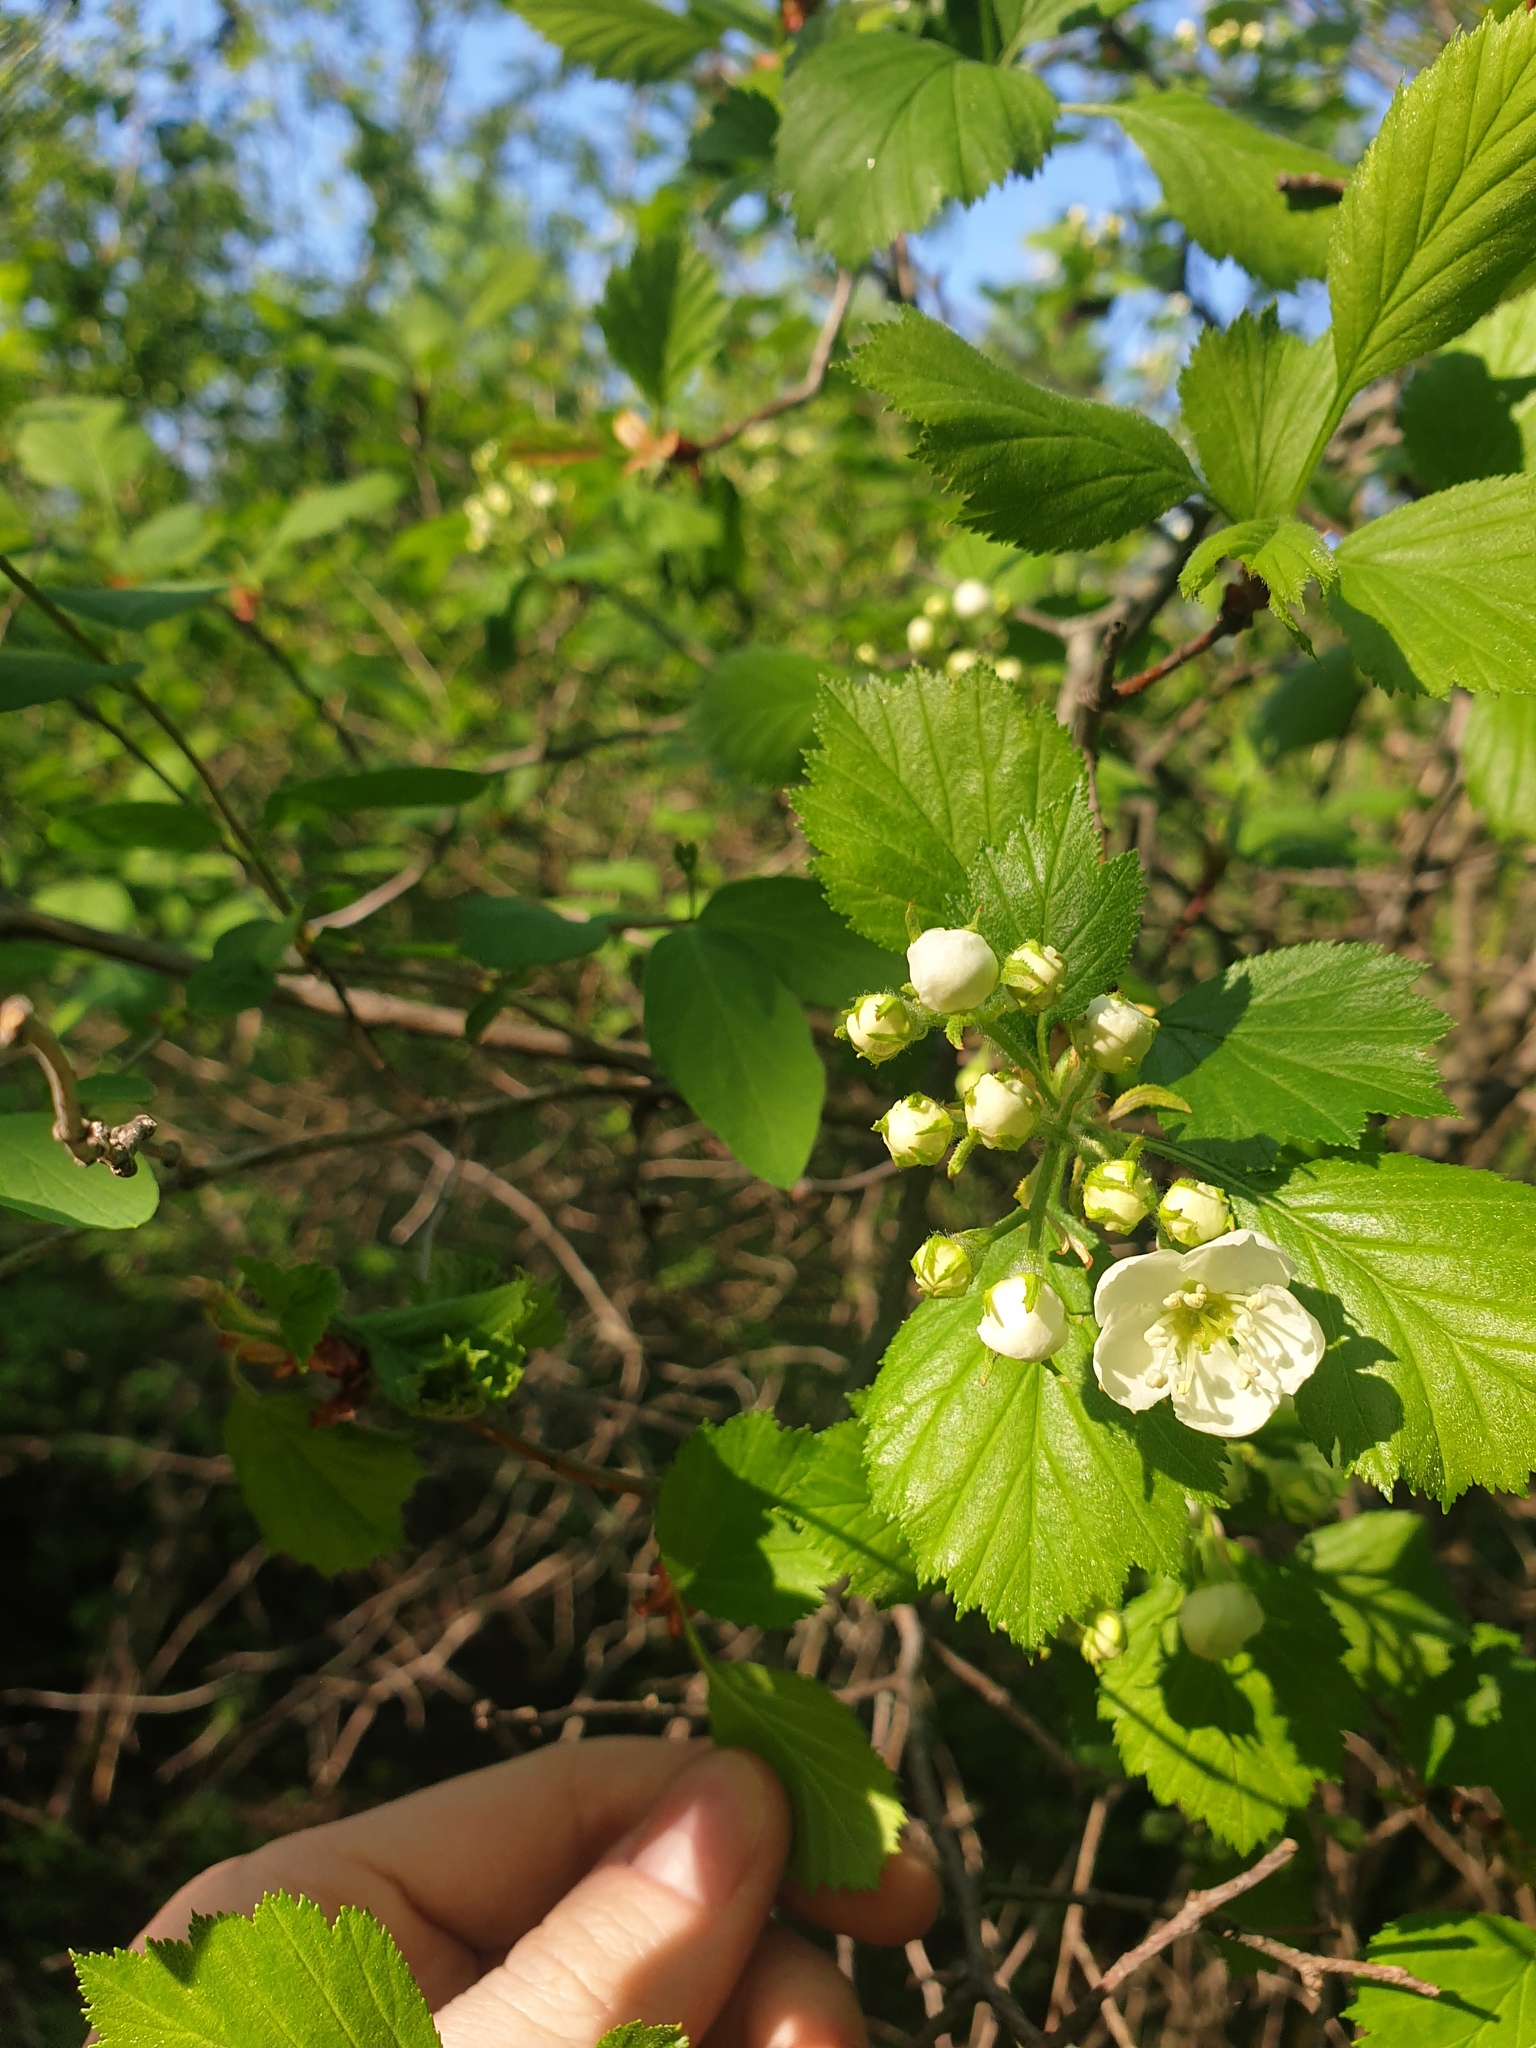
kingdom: Plantae
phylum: Tracheophyta
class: Magnoliopsida
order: Rosales
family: Rosaceae
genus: Crataegus
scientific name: Crataegus chrysocarpa
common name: Fire-berry hawthorn
